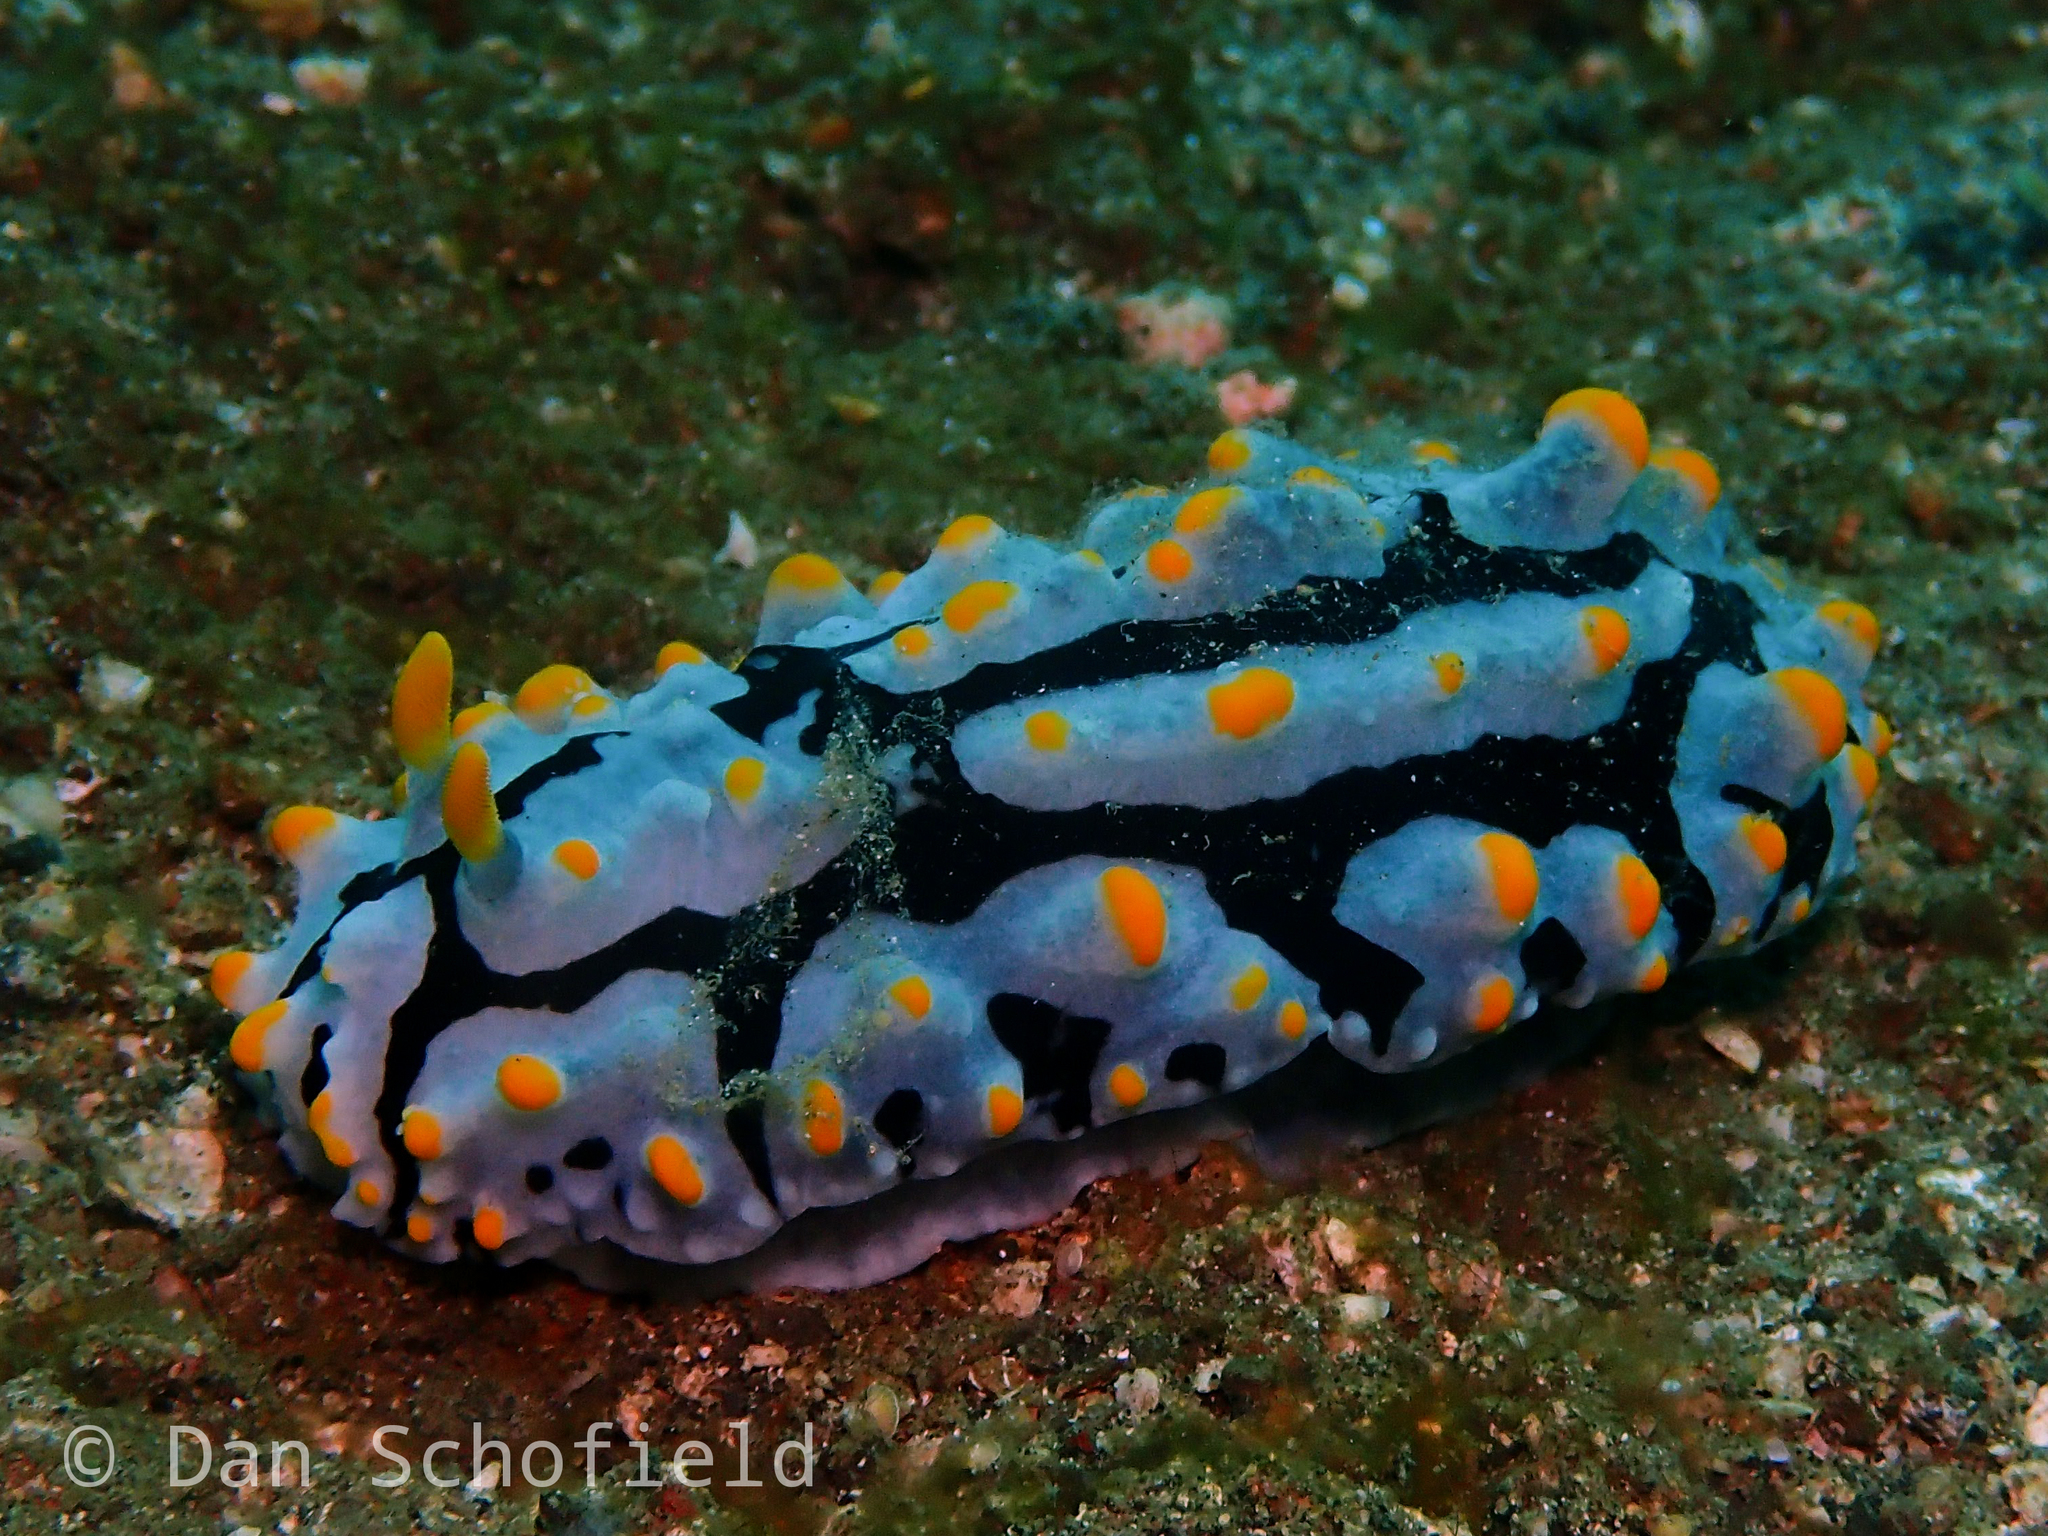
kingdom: Animalia
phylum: Mollusca
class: Gastropoda
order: Nudibranchia
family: Phyllidiidae
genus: Phyllidia
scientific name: Phyllidia varicosa
